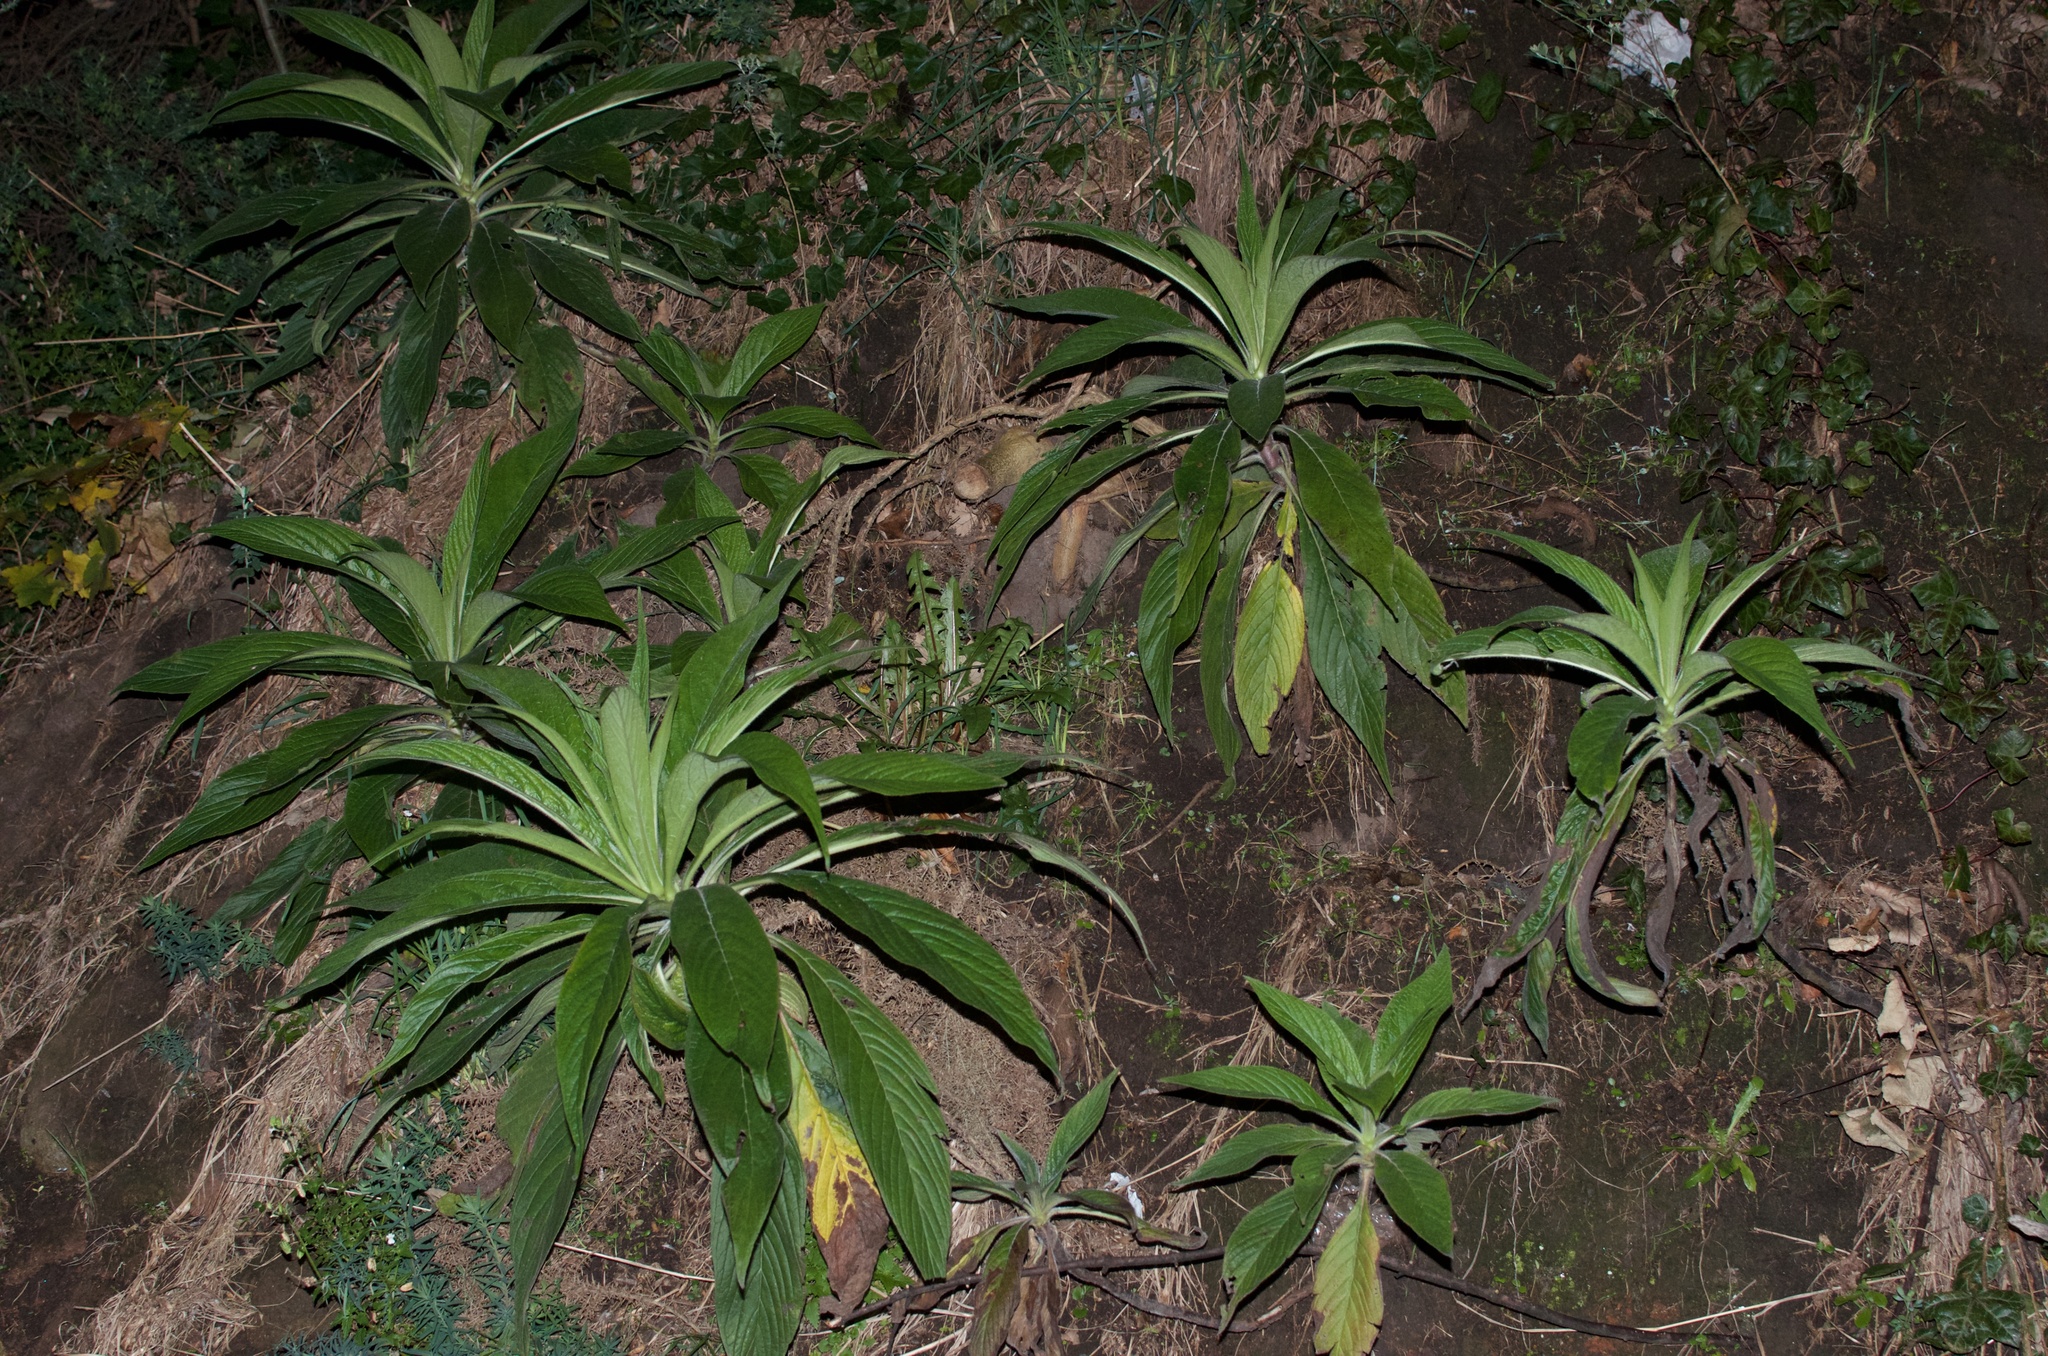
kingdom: Plantae
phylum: Tracheophyta
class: Magnoliopsida
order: Boraginales
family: Boraginaceae
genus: Echium
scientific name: Echium pininana
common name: Giant viper's-bugloss
